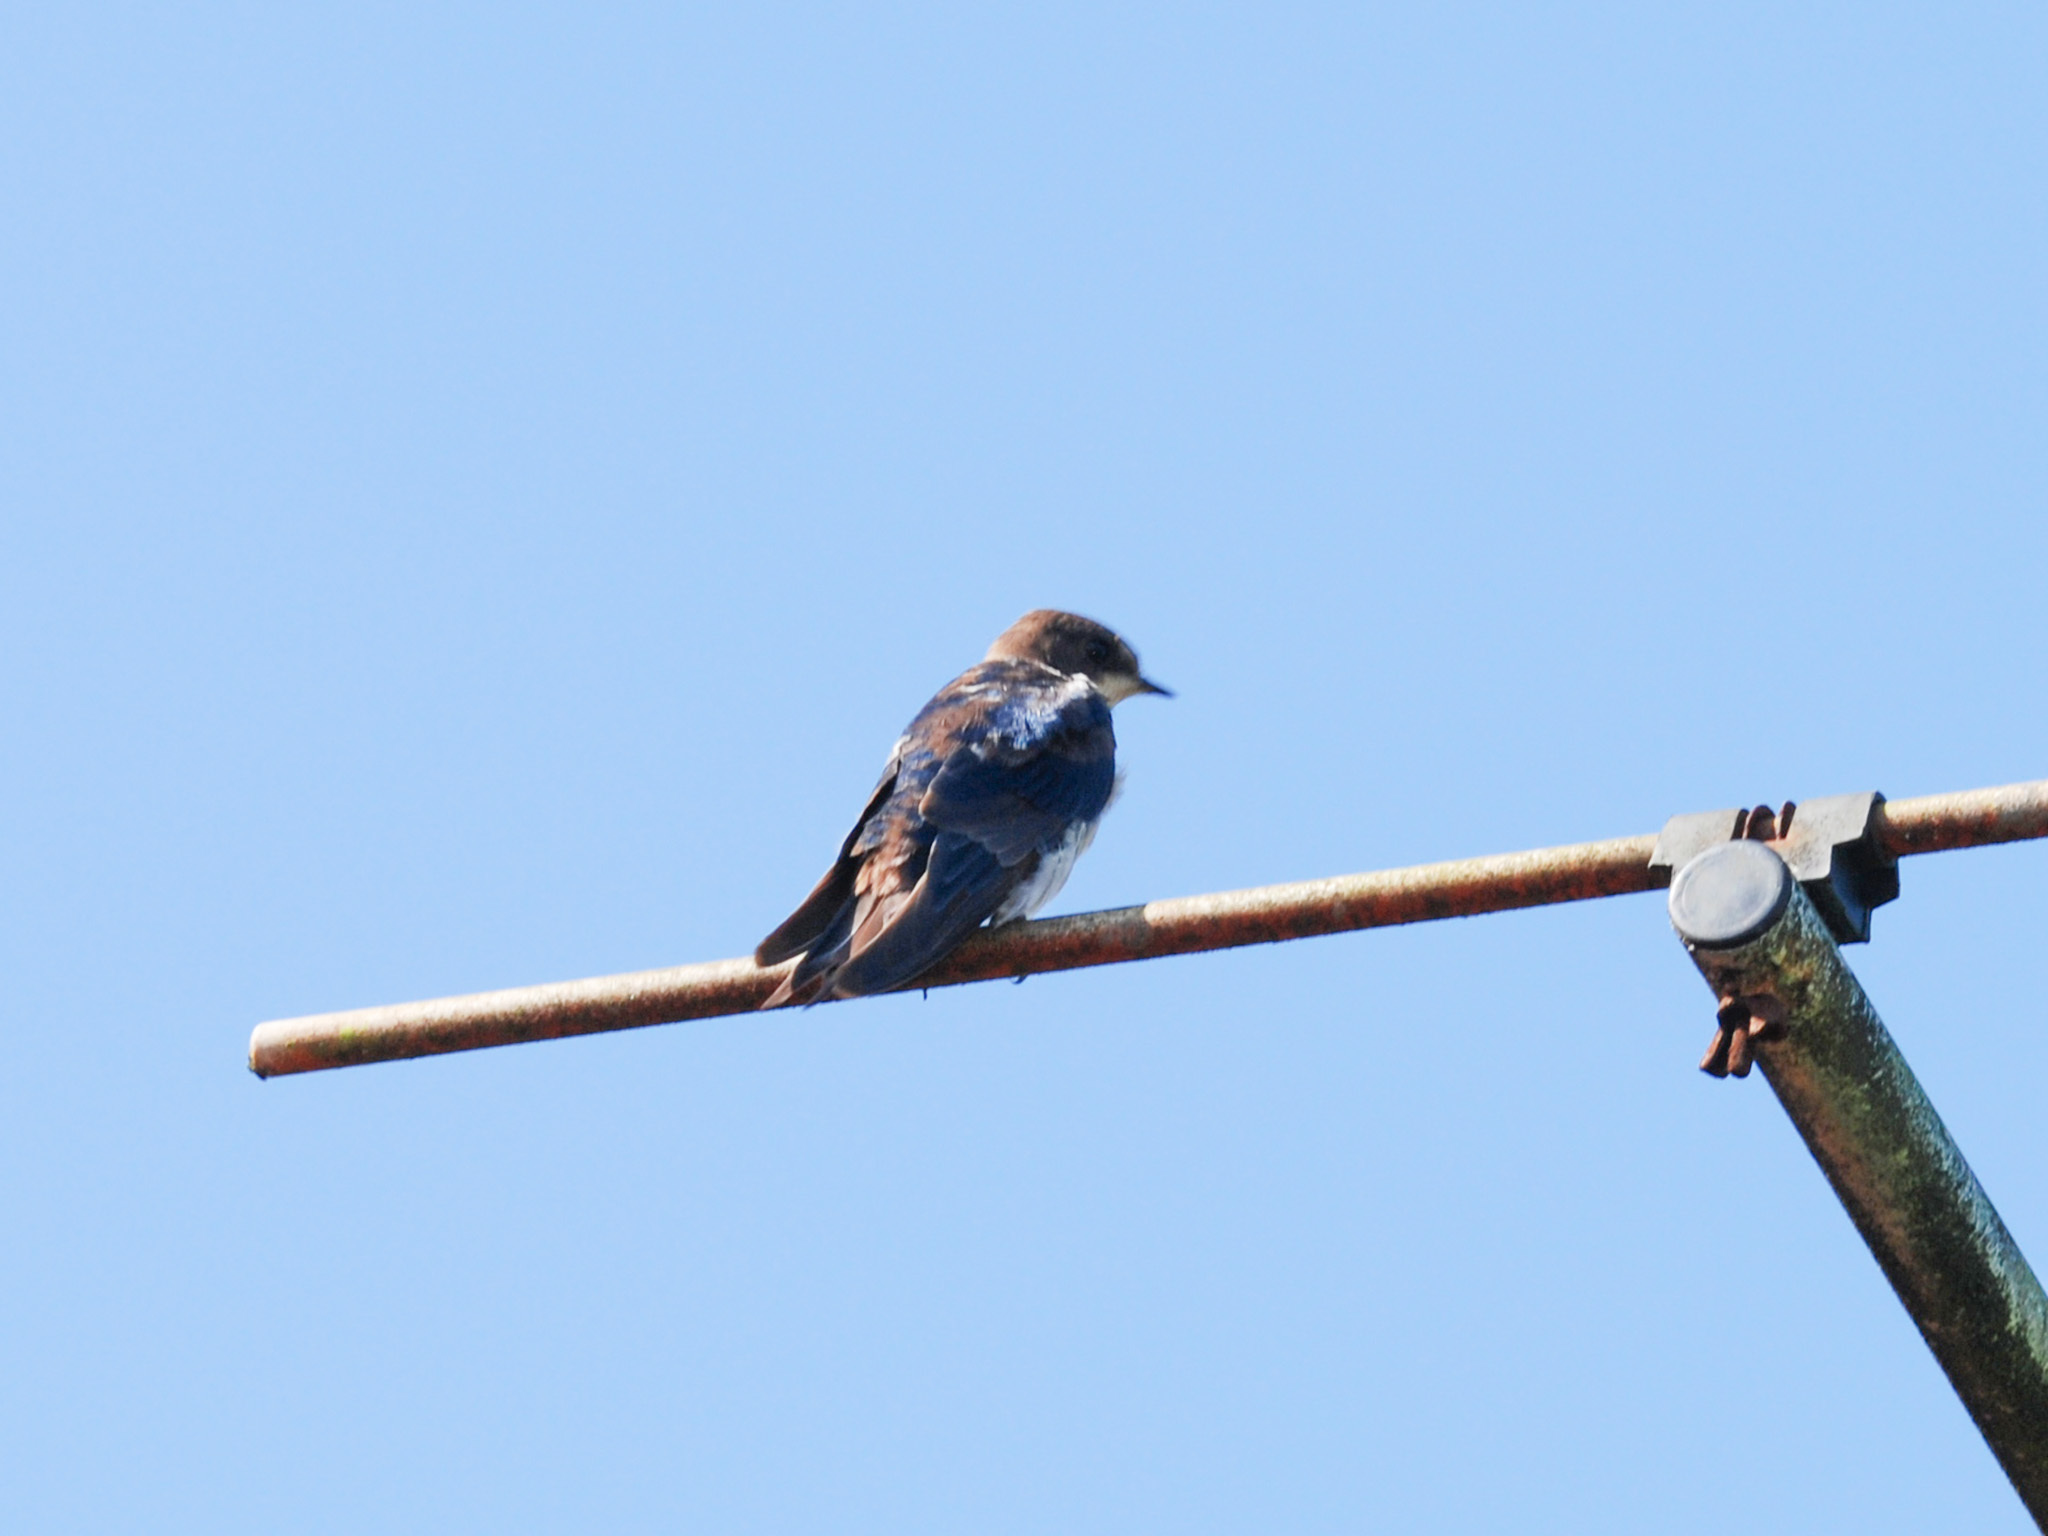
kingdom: Animalia
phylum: Chordata
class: Aves
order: Passeriformes
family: Hirundinidae
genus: Hirundo
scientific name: Hirundo tahitica
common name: Pacific swallow
